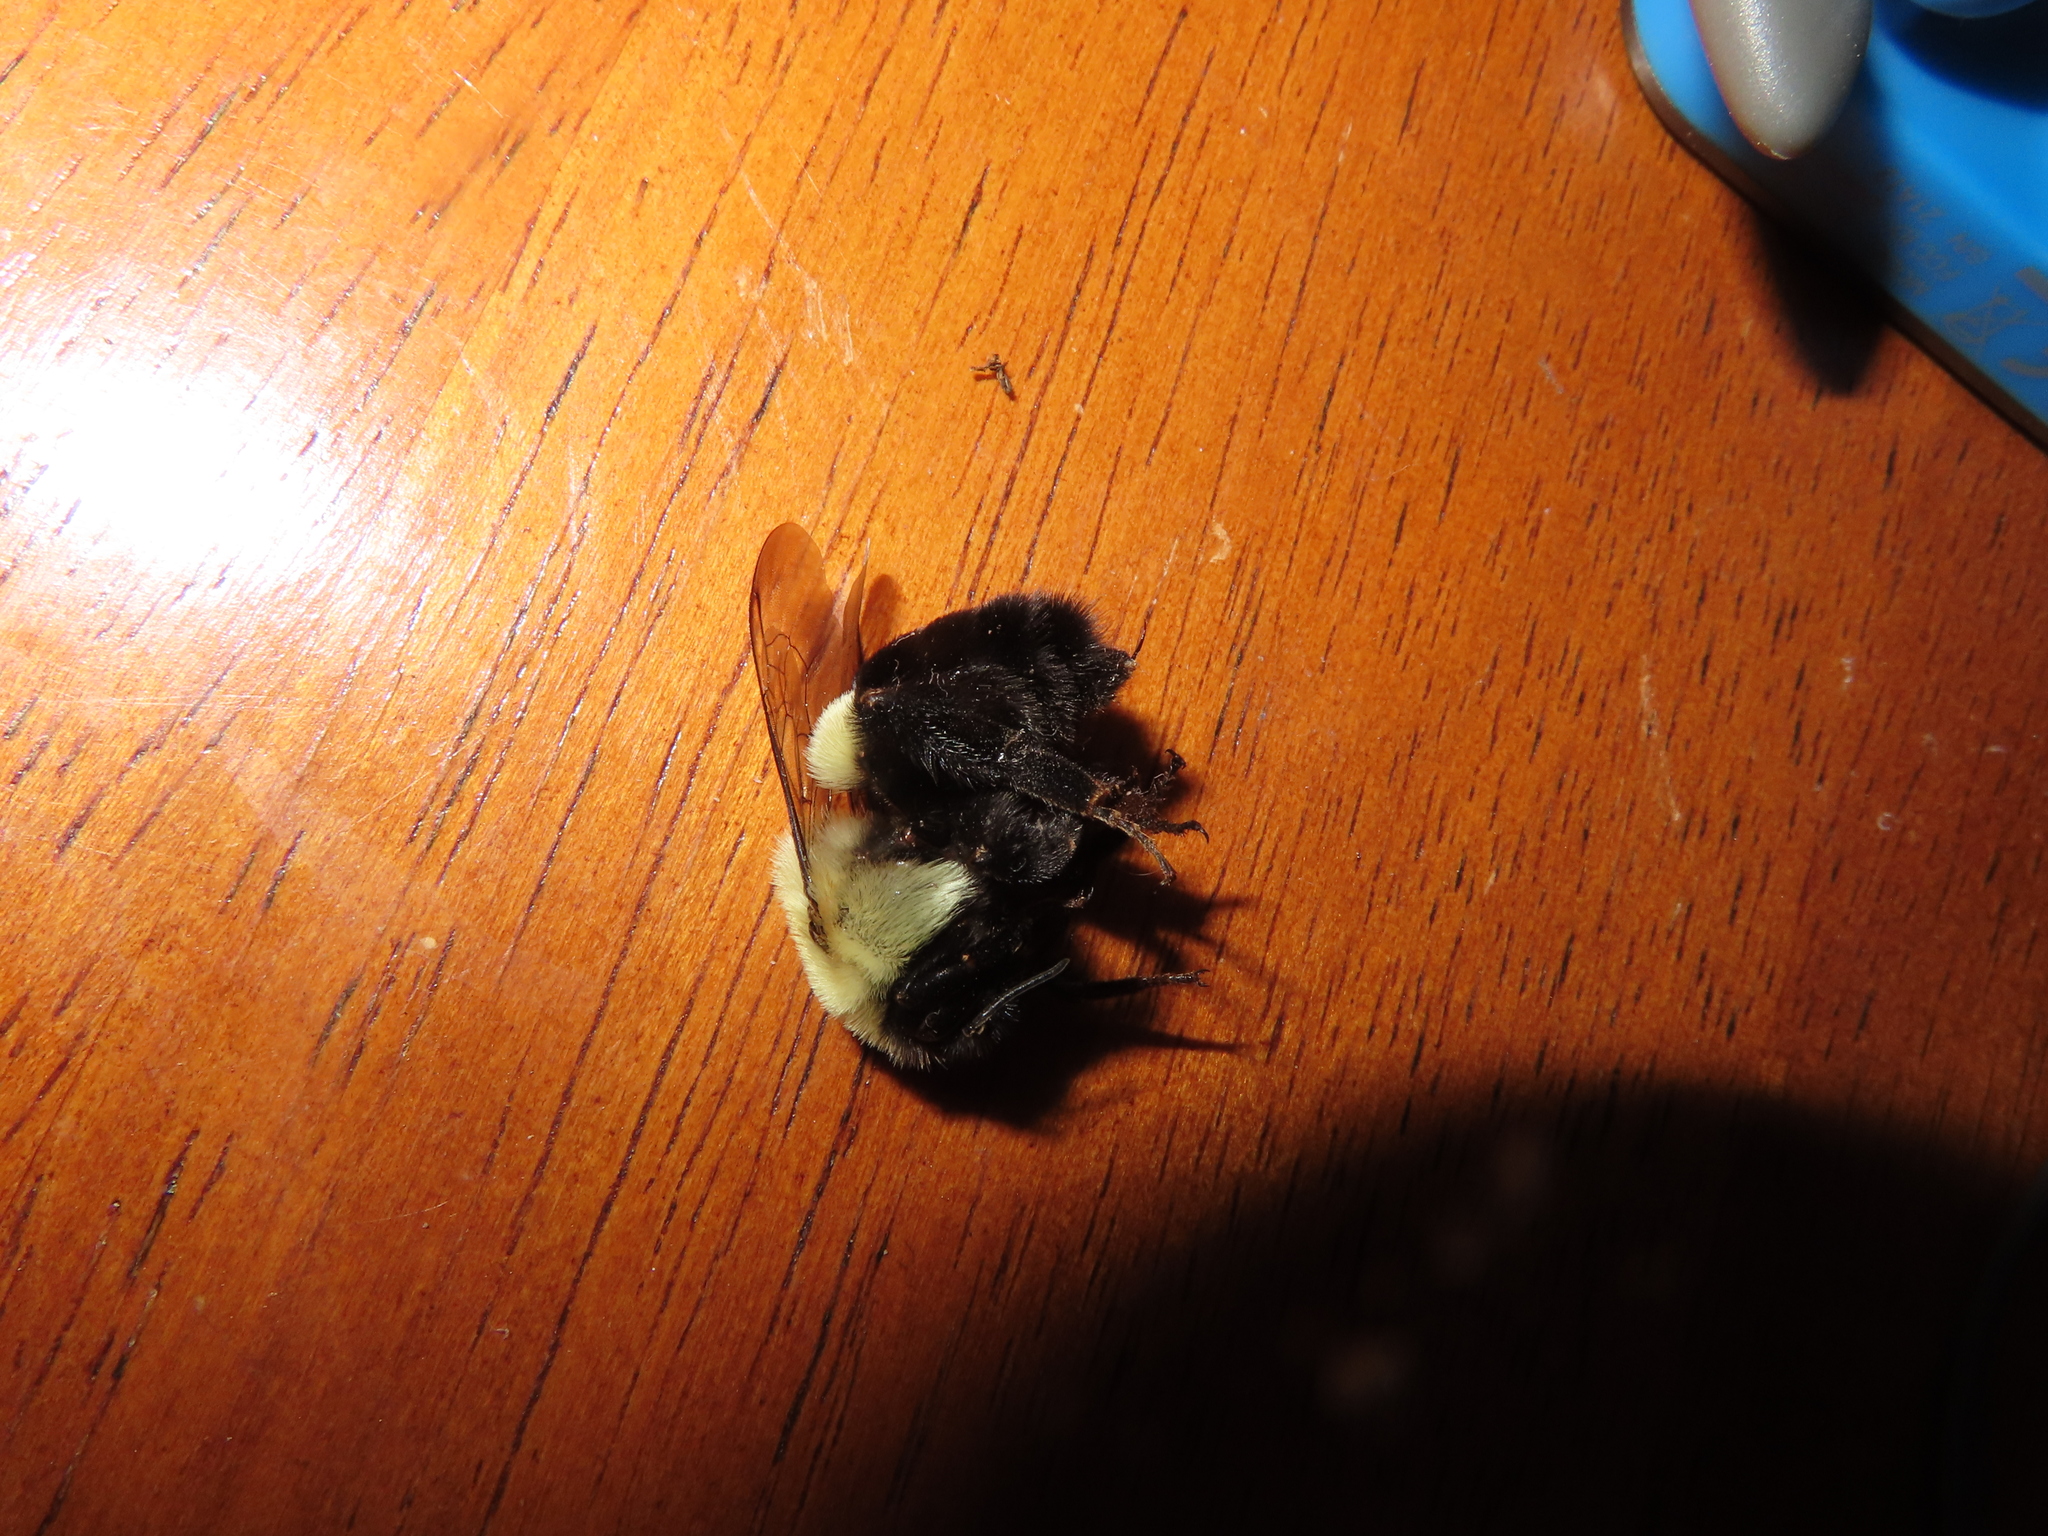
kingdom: Animalia
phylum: Arthropoda
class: Insecta
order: Hymenoptera
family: Apidae
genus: Bombus
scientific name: Bombus impatiens
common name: Common eastern bumble bee
